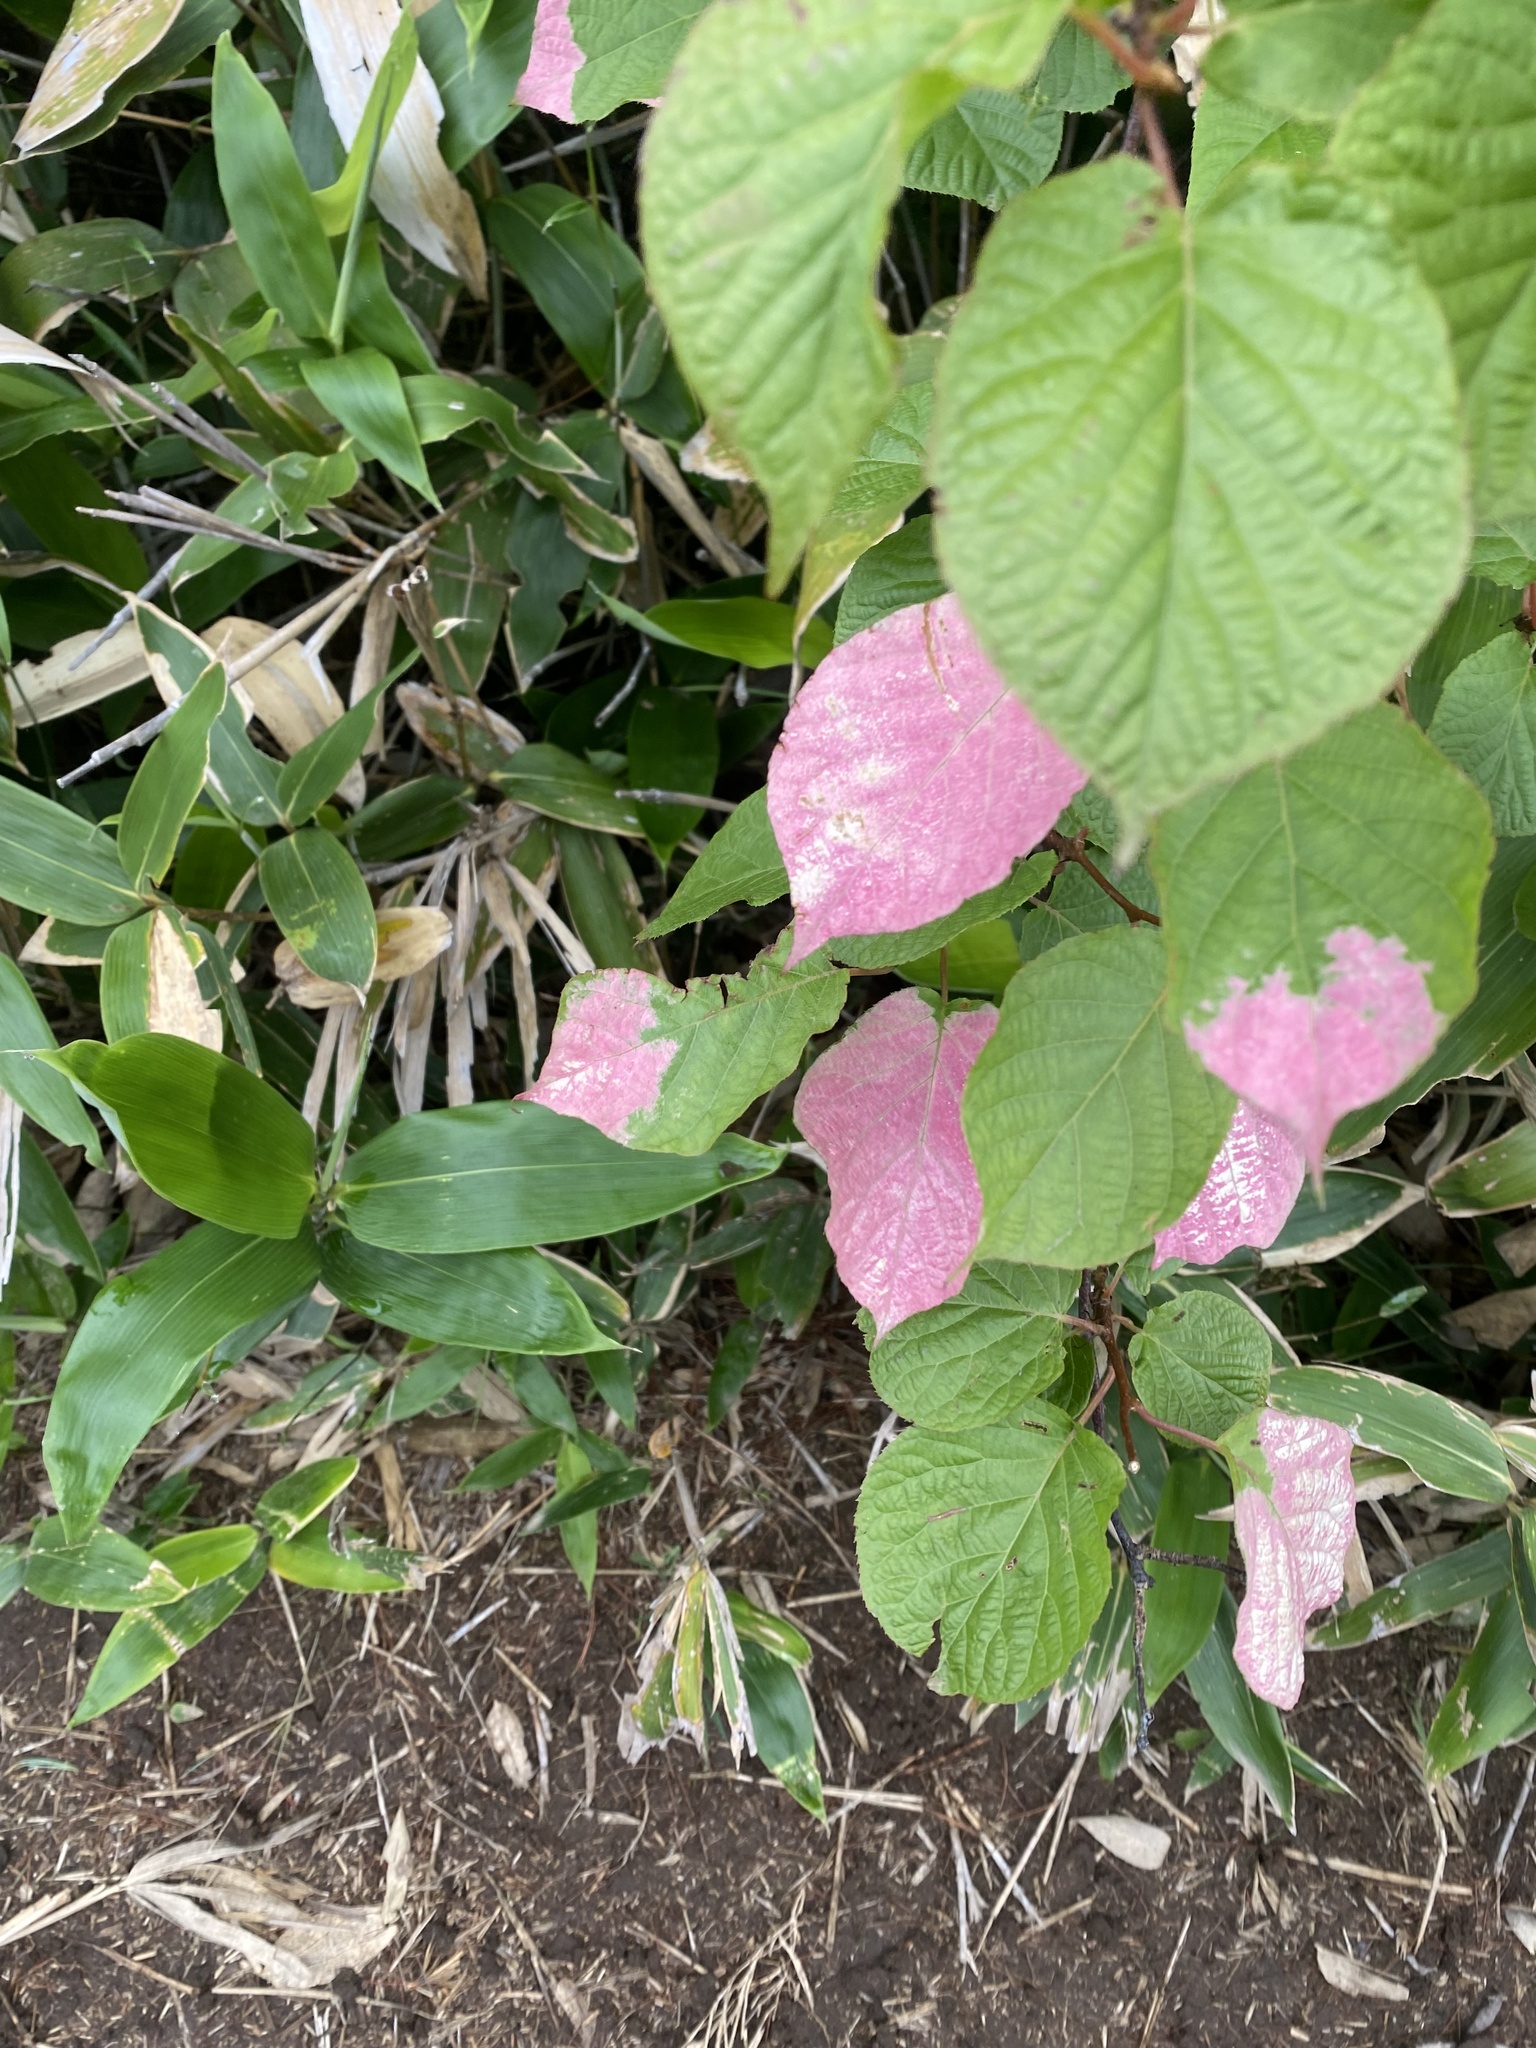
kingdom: Plantae
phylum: Tracheophyta
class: Magnoliopsida
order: Ericales
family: Actinidiaceae
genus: Actinidia
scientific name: Actinidia kolomikta
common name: Arctic beauty kiwi
